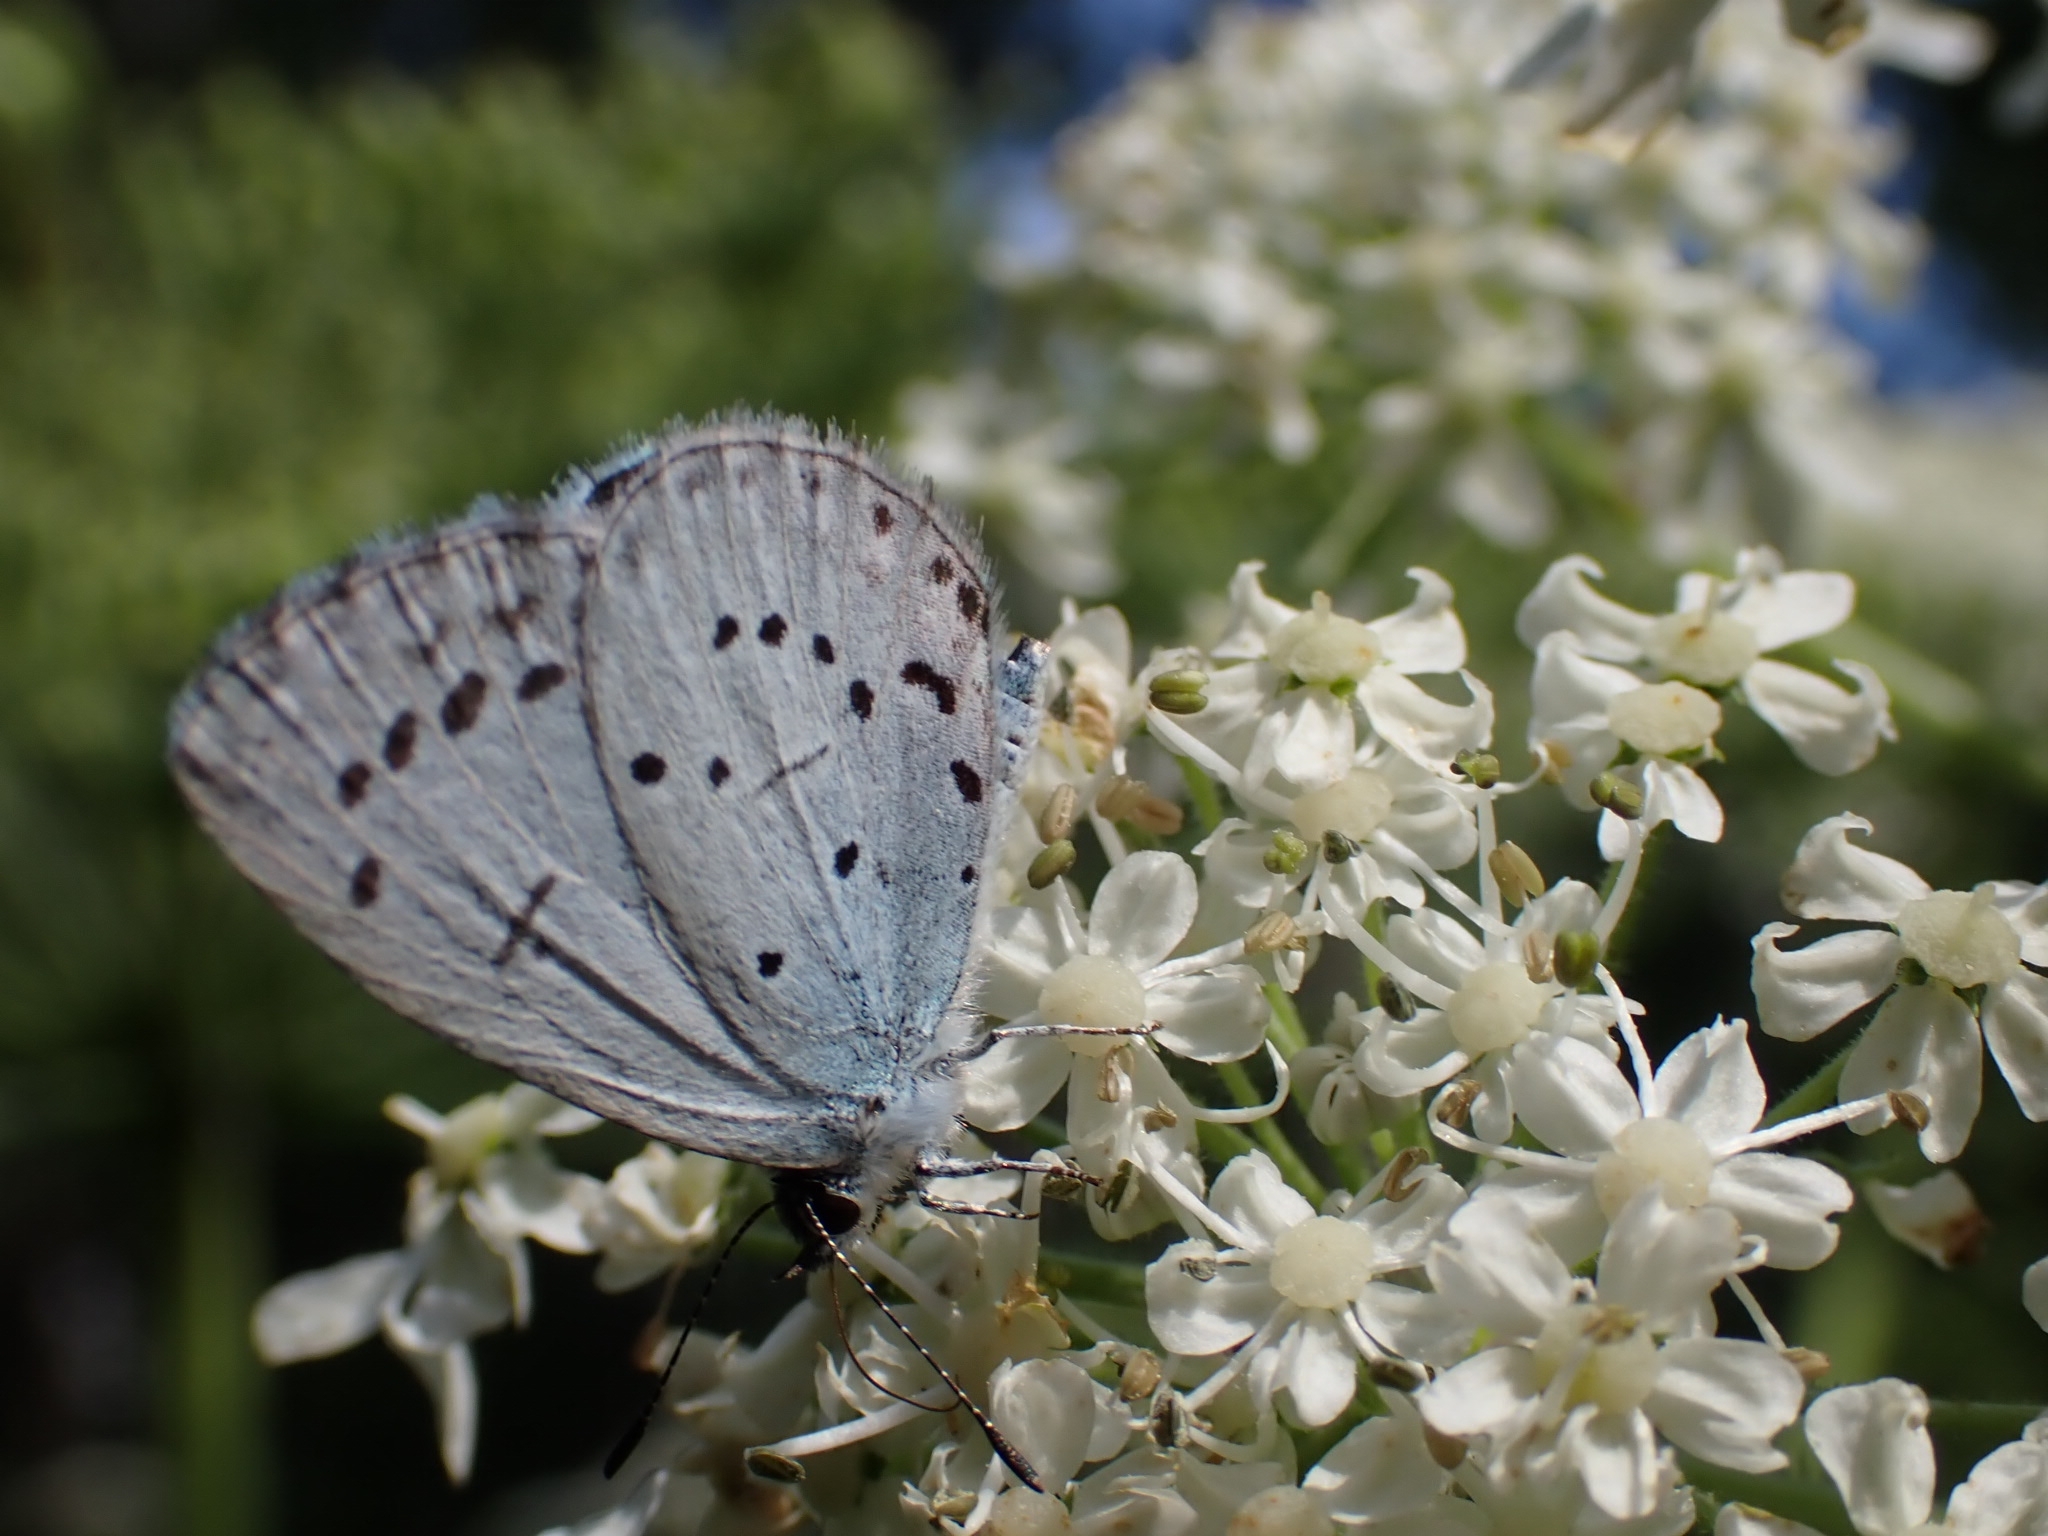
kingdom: Animalia
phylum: Arthropoda
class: Insecta
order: Lepidoptera
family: Lycaenidae
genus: Celastrina
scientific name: Celastrina argiolus
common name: Holly blue
